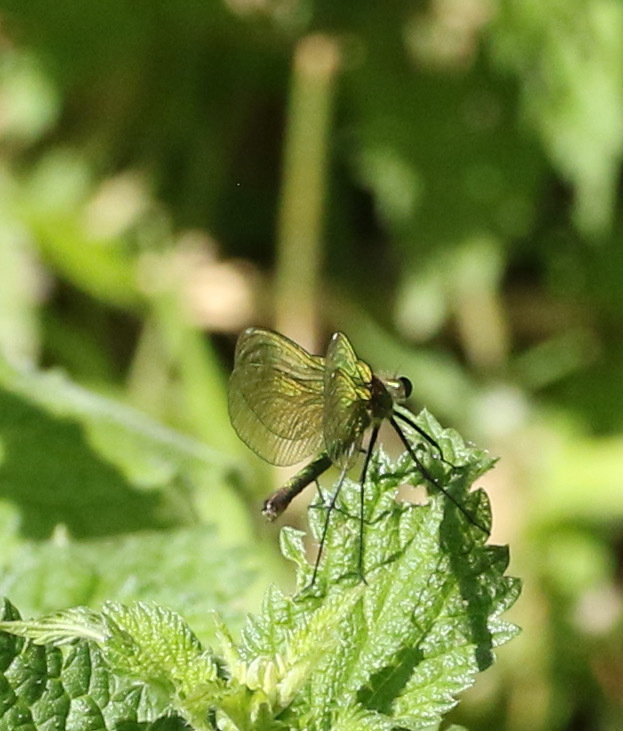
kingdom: Animalia
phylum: Arthropoda
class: Insecta
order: Odonata
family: Calopterygidae
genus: Calopteryx
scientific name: Calopteryx splendens
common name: Banded demoiselle
